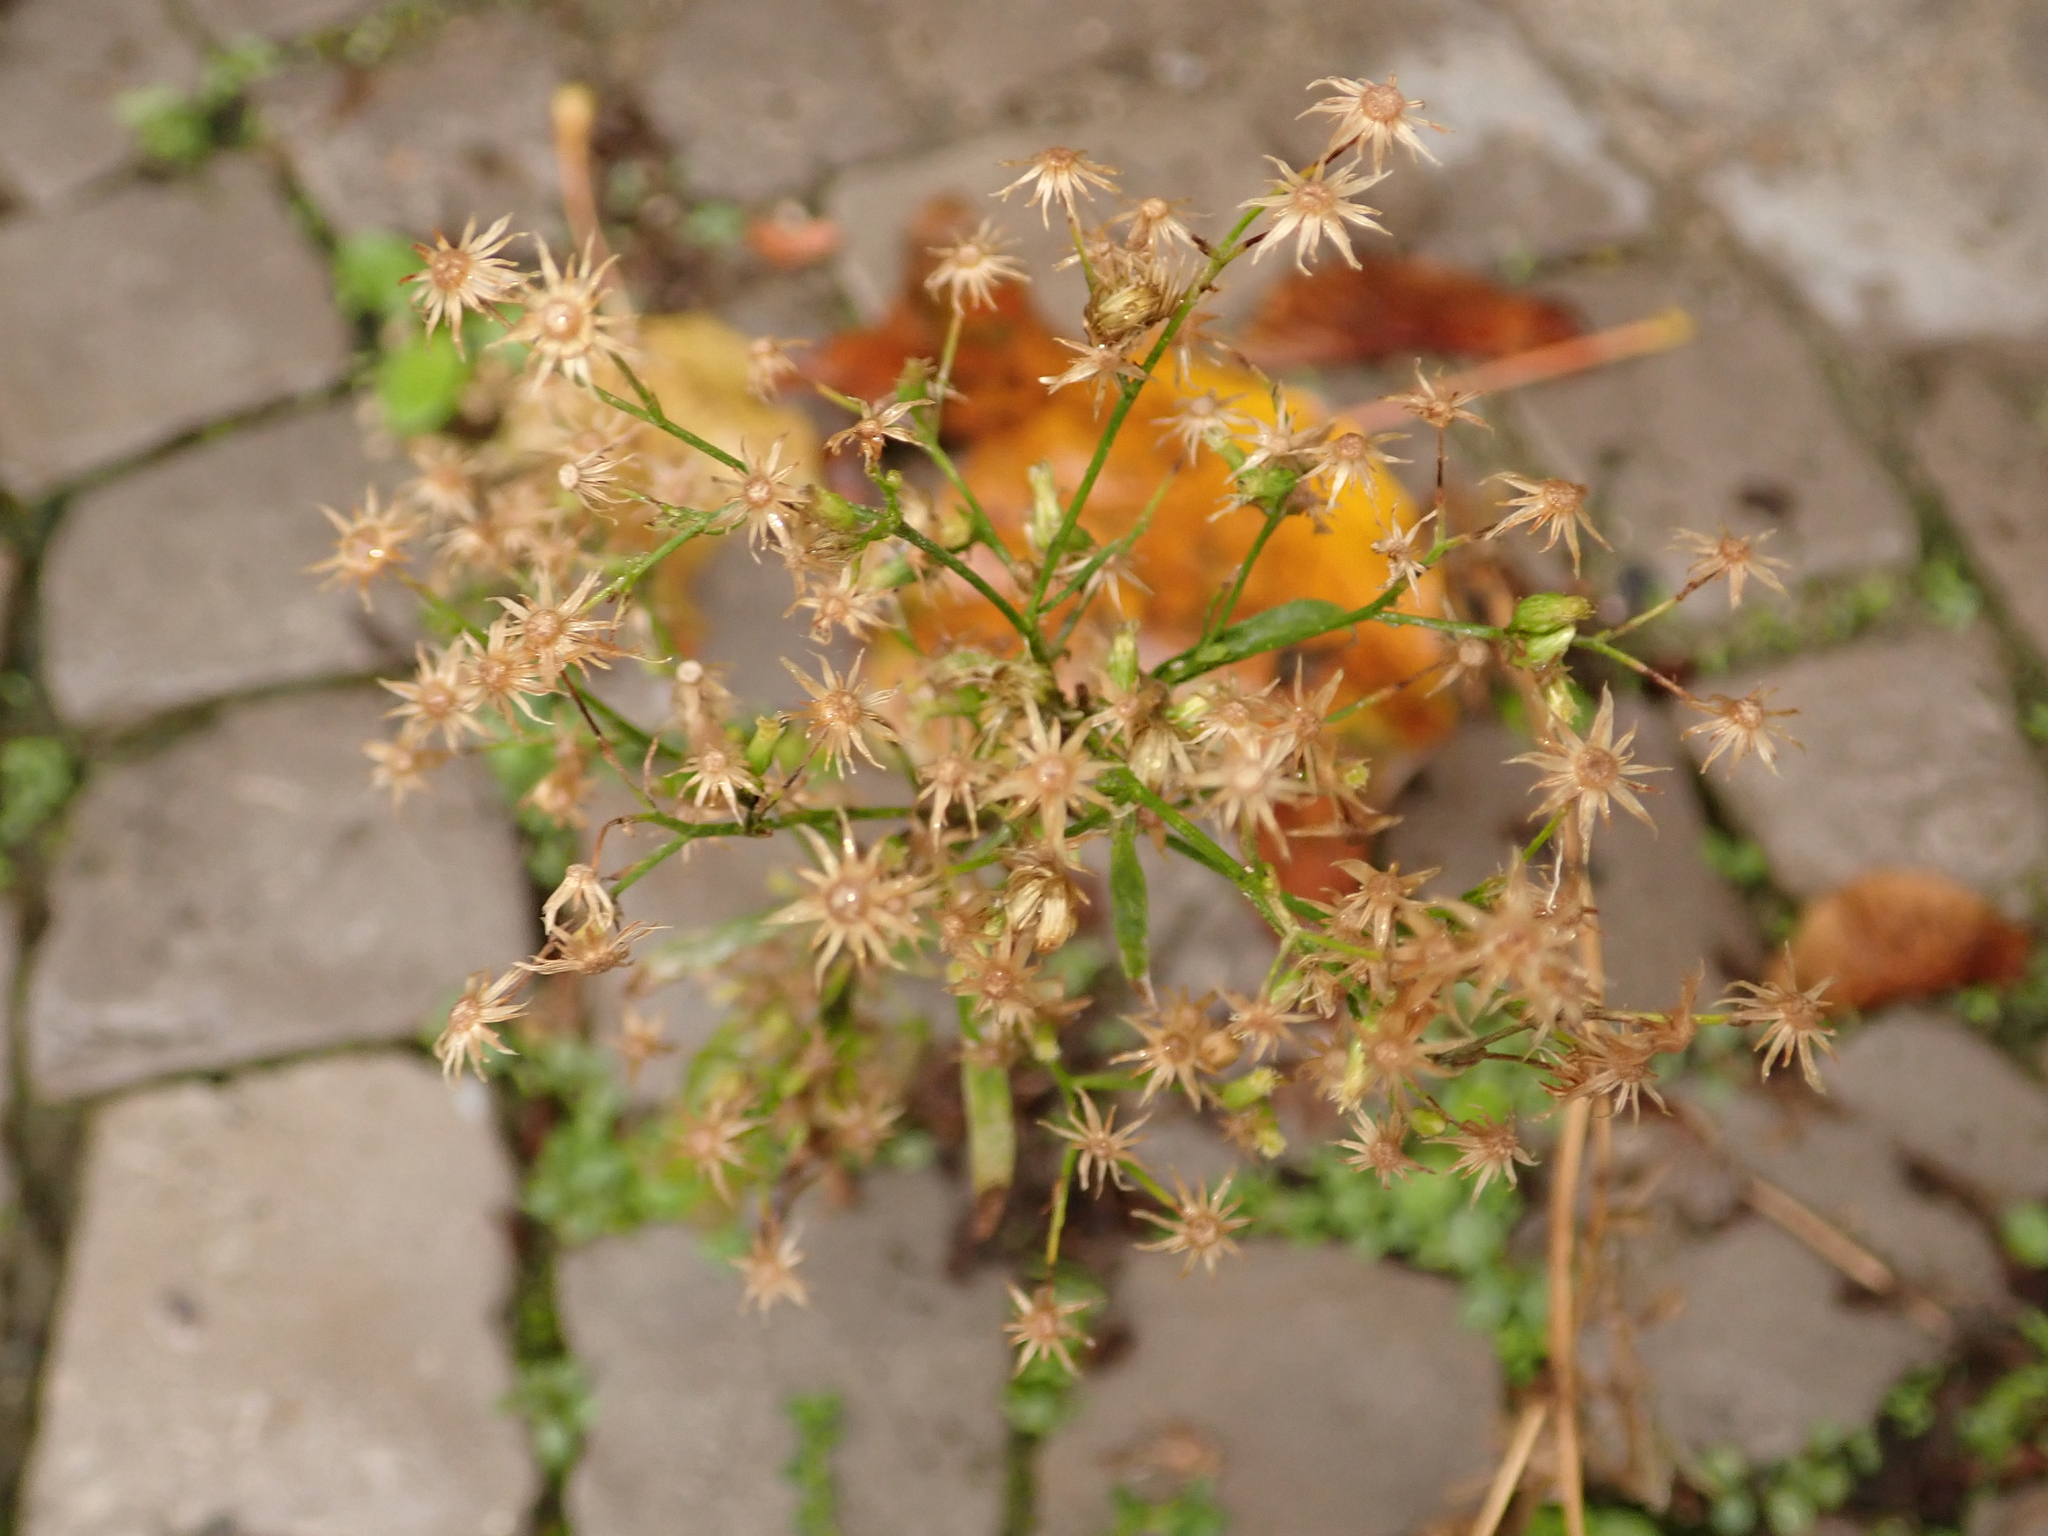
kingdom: Plantae
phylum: Tracheophyta
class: Magnoliopsida
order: Asterales
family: Asteraceae
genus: Erigeron
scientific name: Erigeron canadensis
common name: Canadian fleabane
